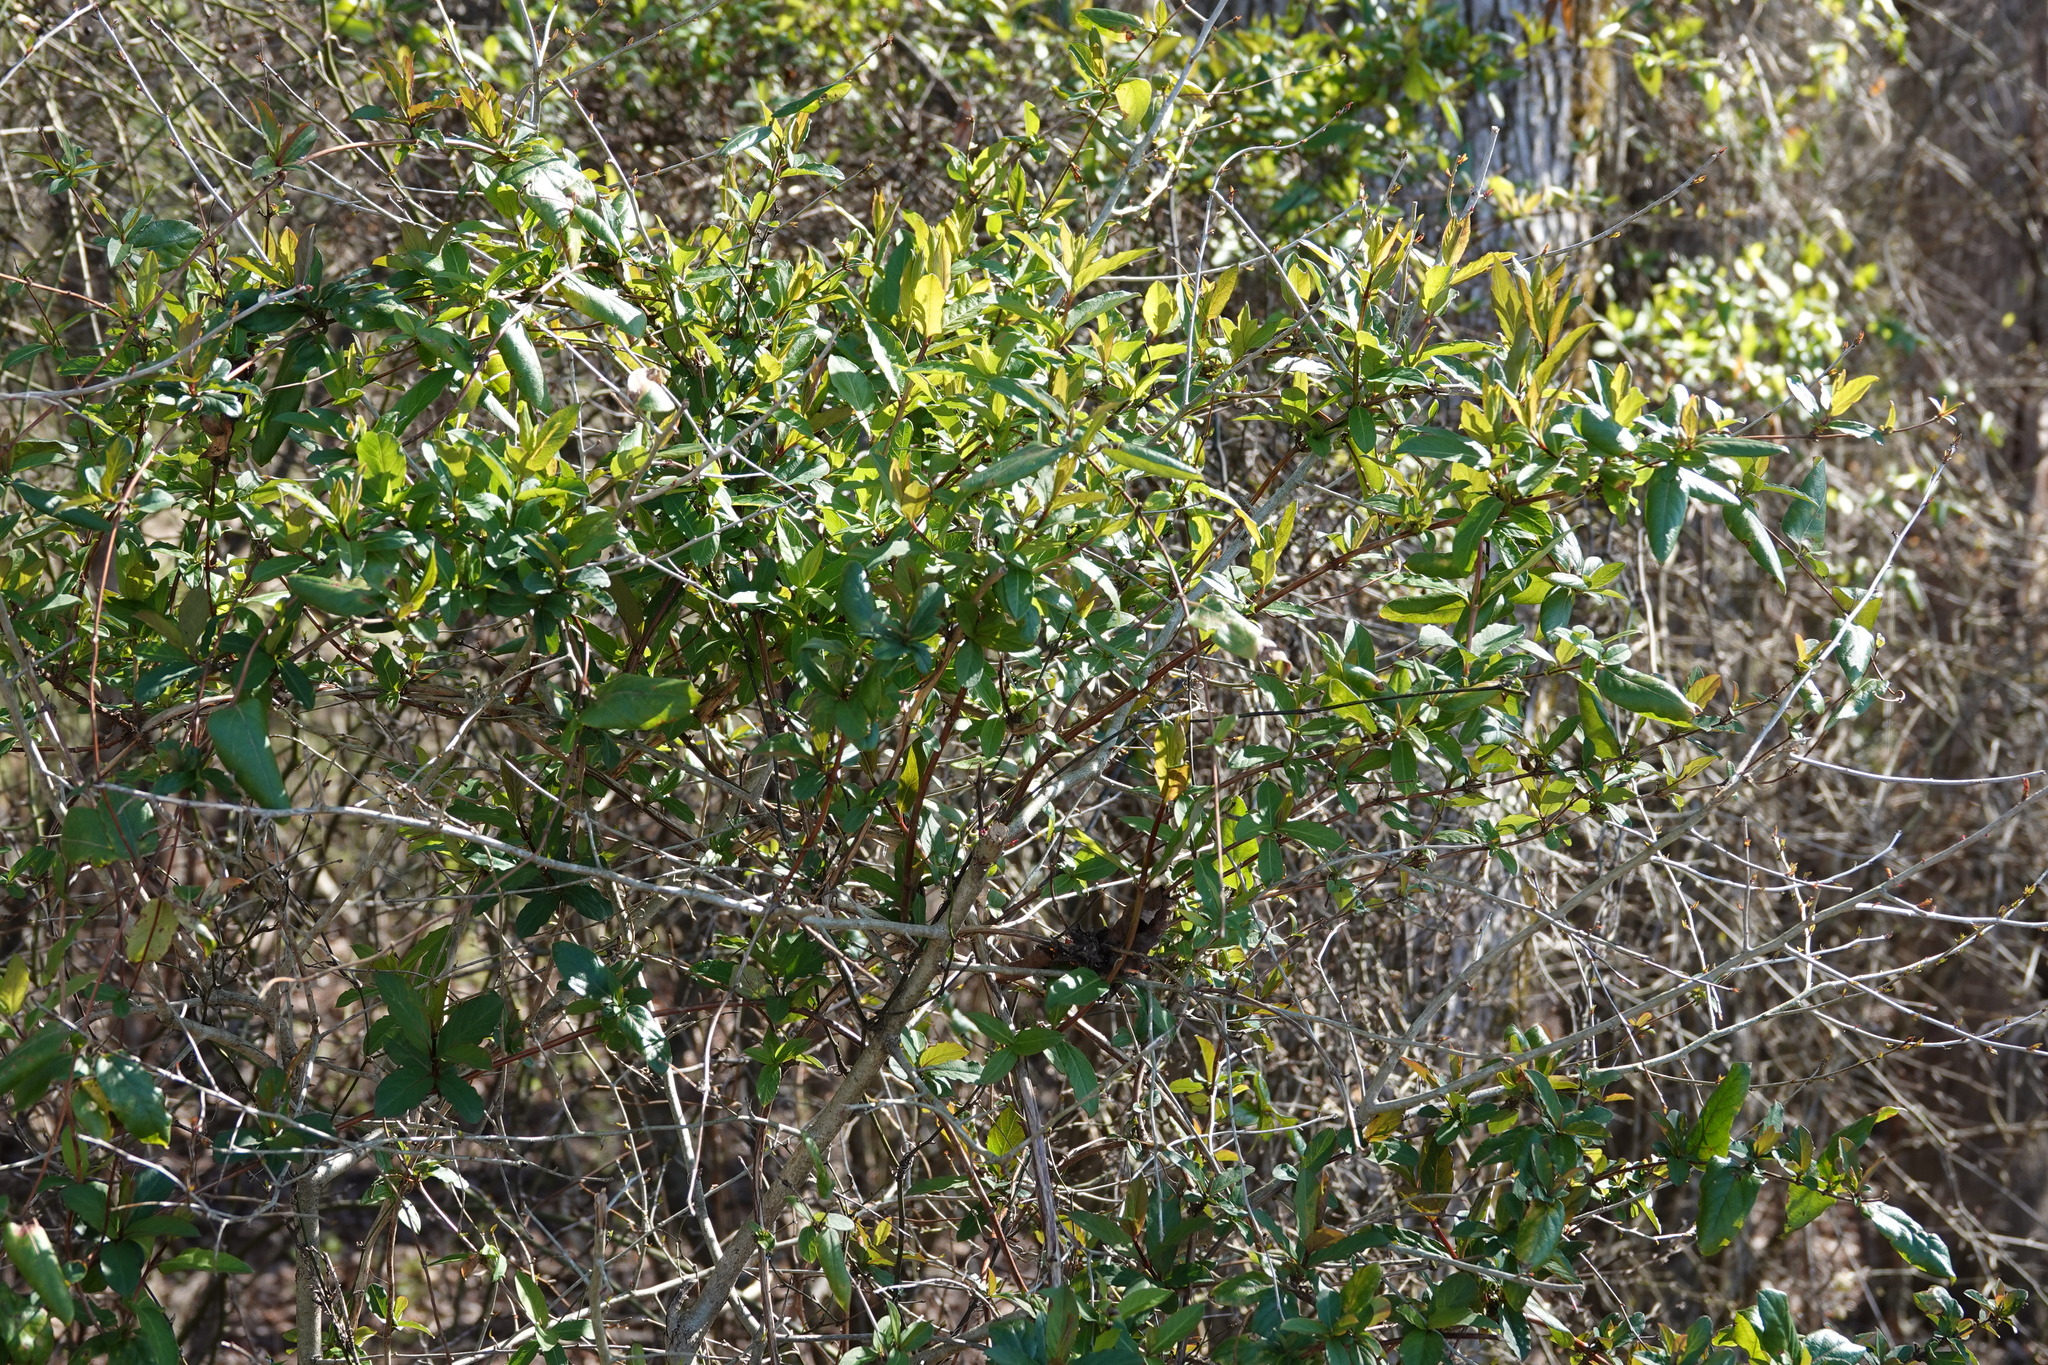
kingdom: Plantae
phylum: Tracheophyta
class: Magnoliopsida
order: Dipsacales
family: Caprifoliaceae
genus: Lonicera
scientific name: Lonicera japonica
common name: Japanese honeysuckle
